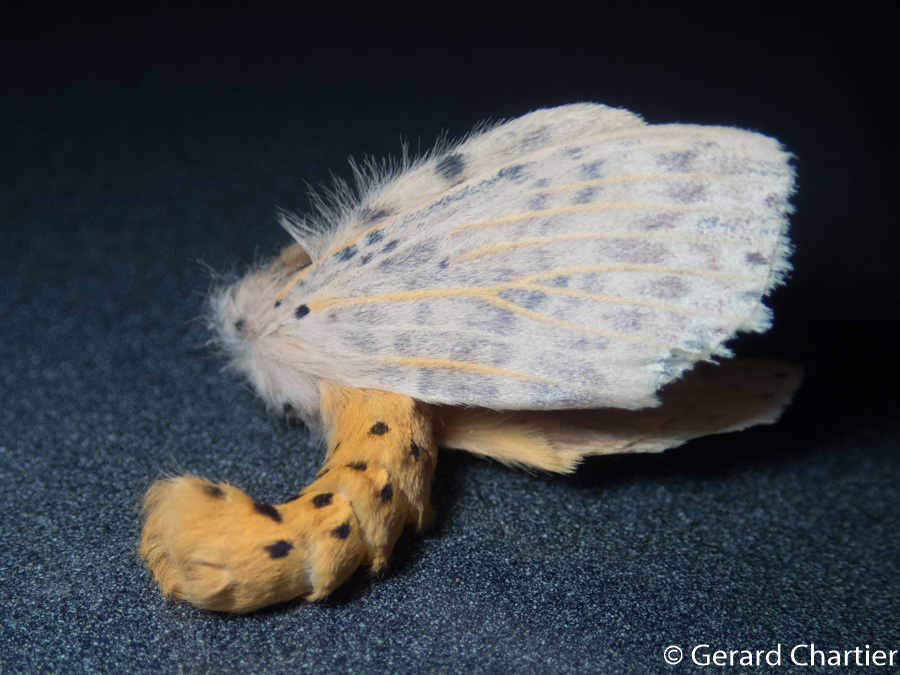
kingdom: Animalia
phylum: Arthropoda
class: Insecta
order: Lepidoptera
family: Notodontidae
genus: Cerasana
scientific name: Cerasana
